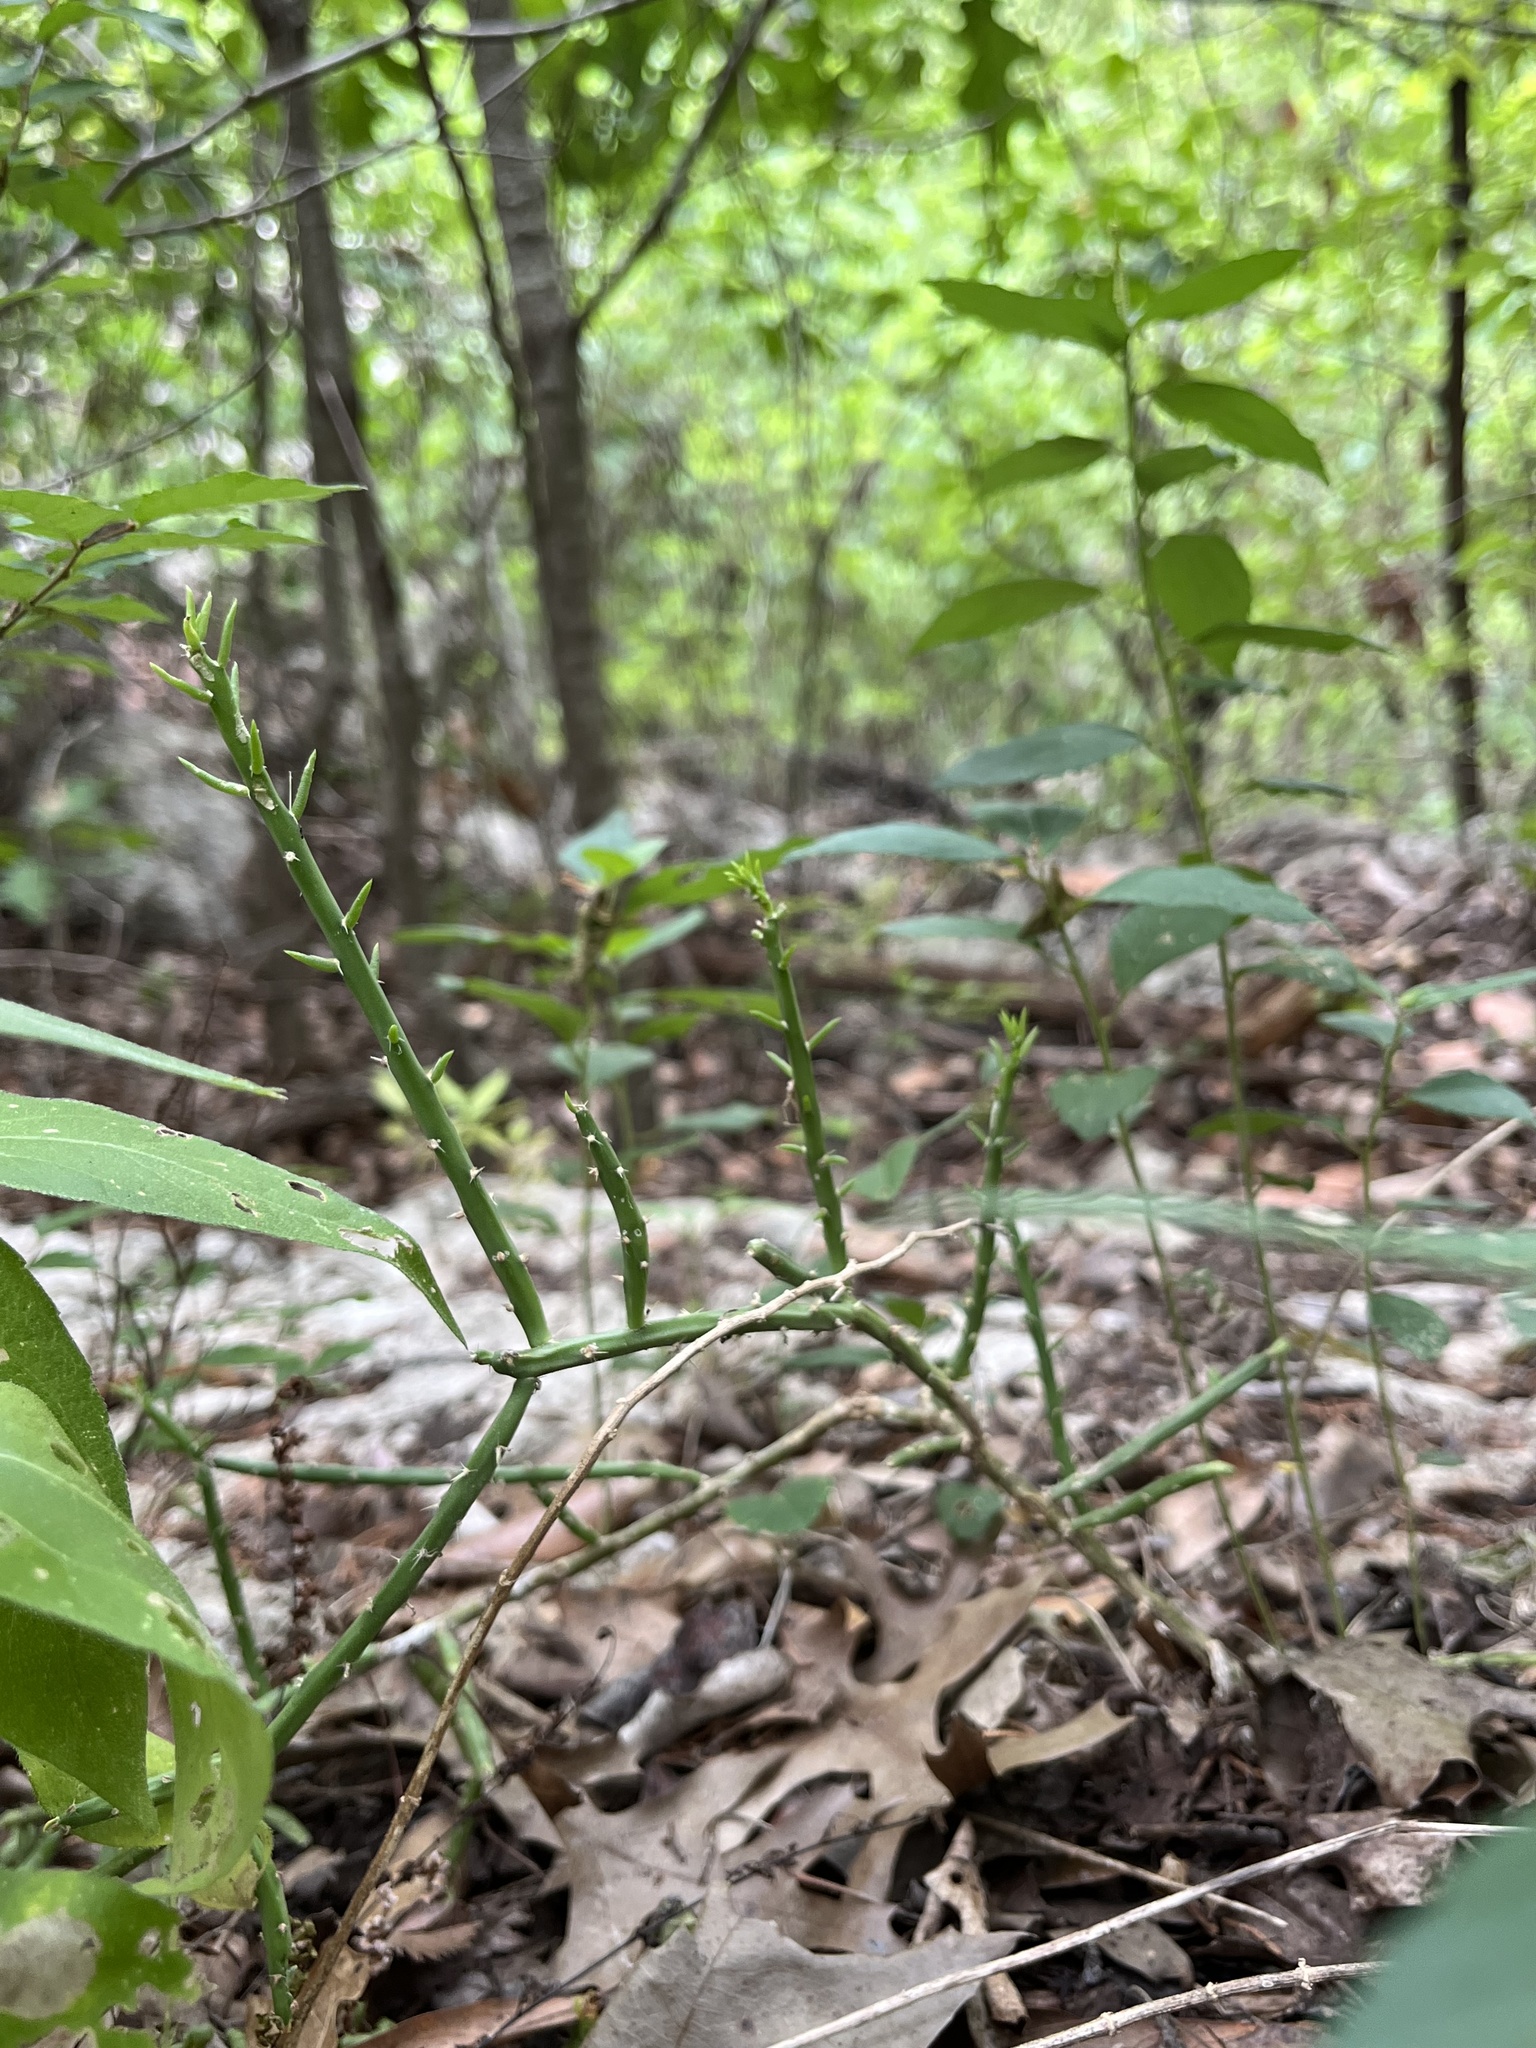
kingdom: Plantae
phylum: Tracheophyta
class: Magnoliopsida
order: Caryophyllales
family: Cactaceae
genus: Cylindropuntia
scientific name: Cylindropuntia leptocaulis
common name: Christmas cactus
